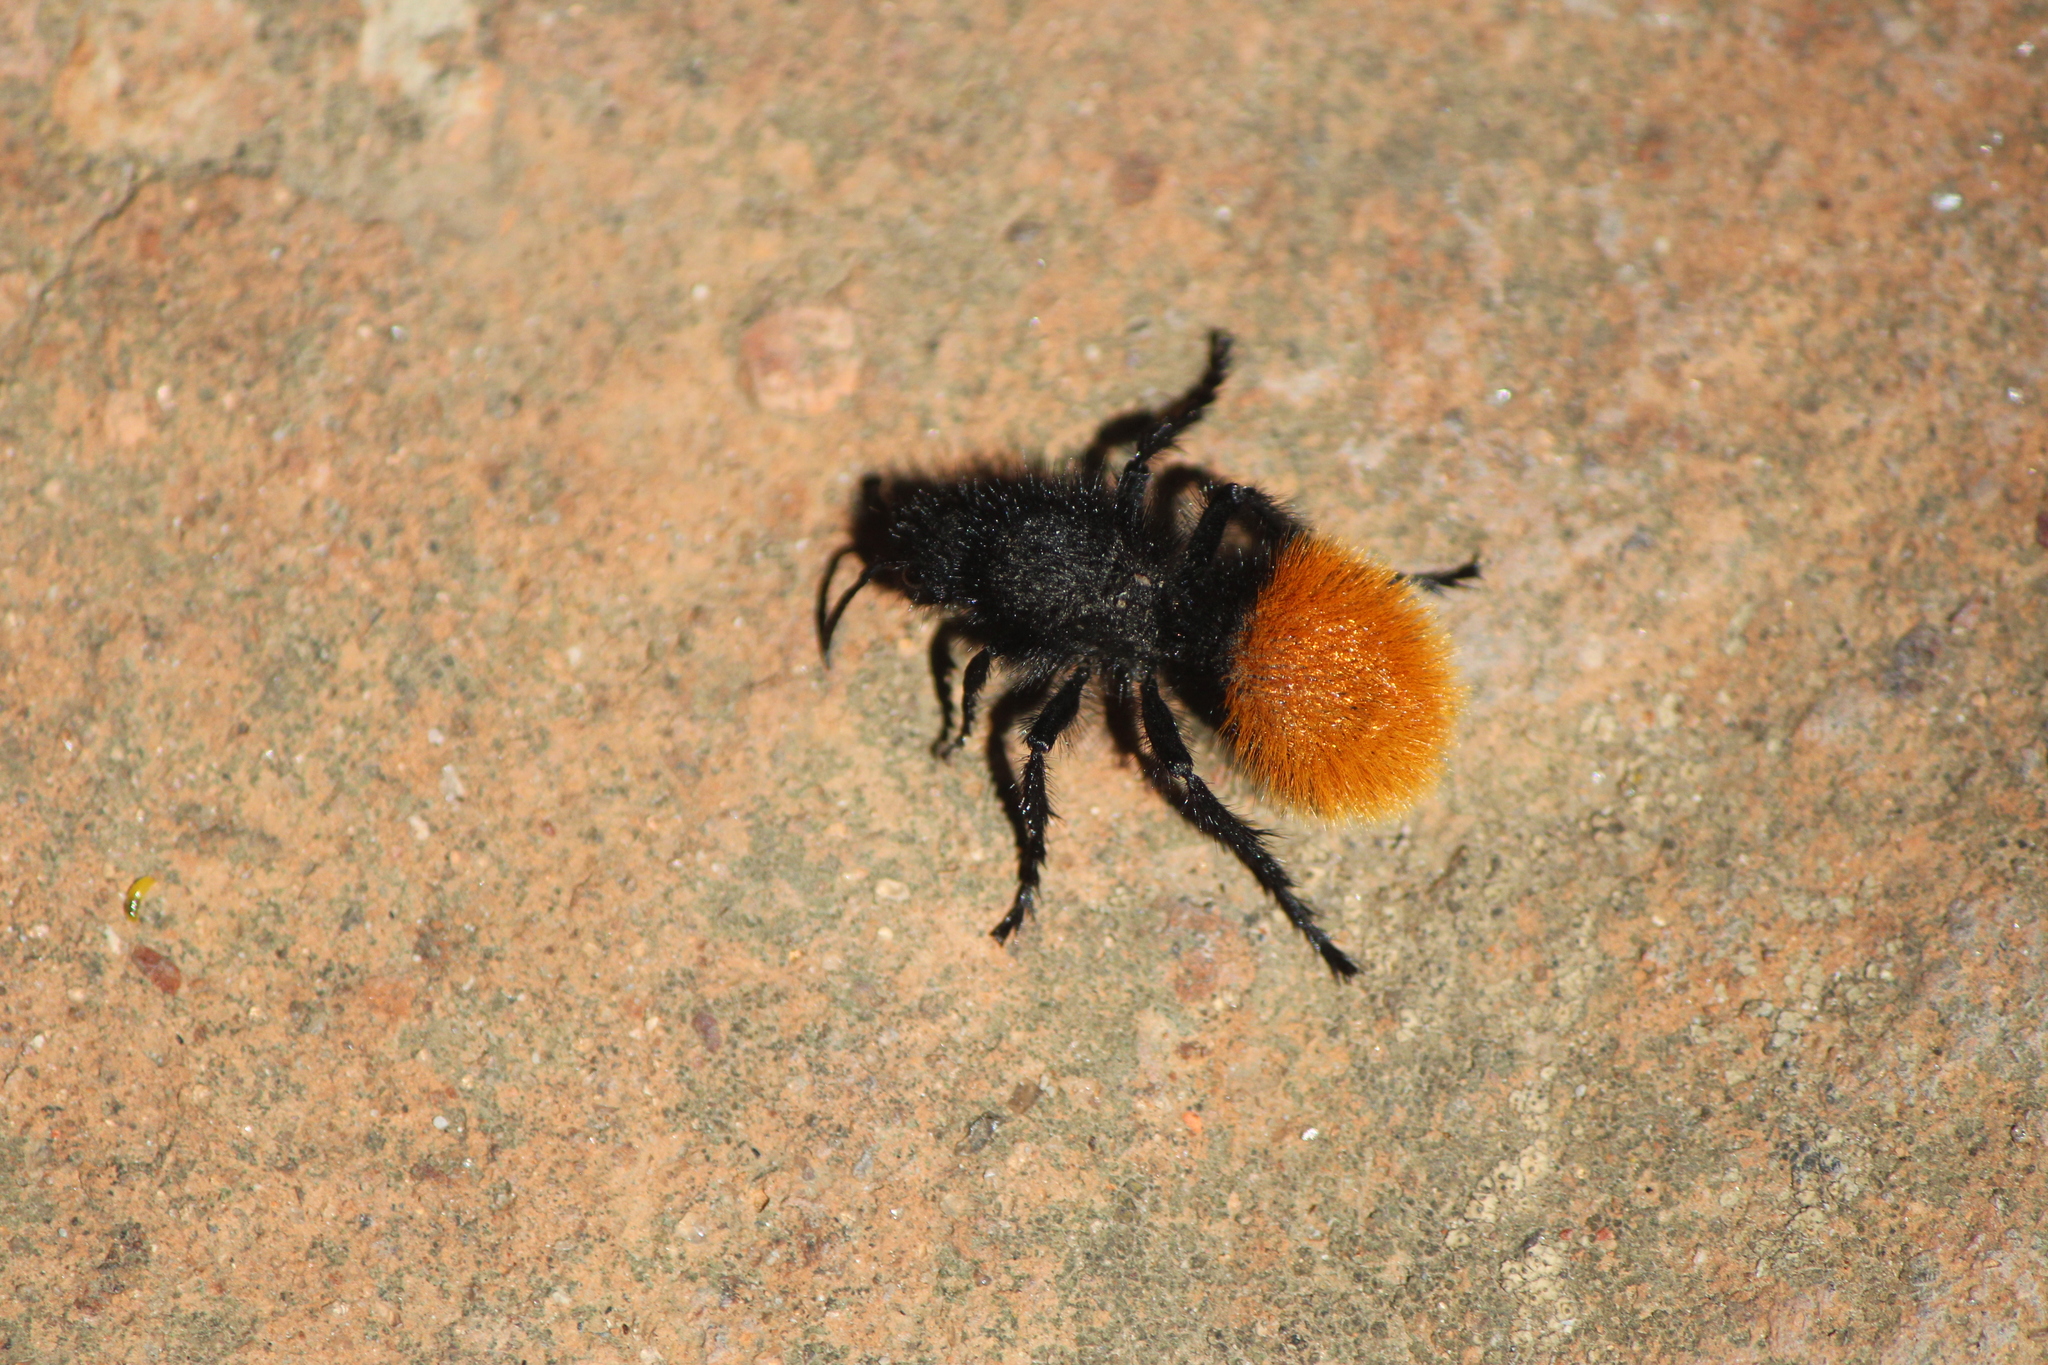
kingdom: Animalia
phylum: Arthropoda
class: Insecta
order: Hymenoptera
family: Mutillidae
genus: Dasymutilla
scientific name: Dasymutilla
